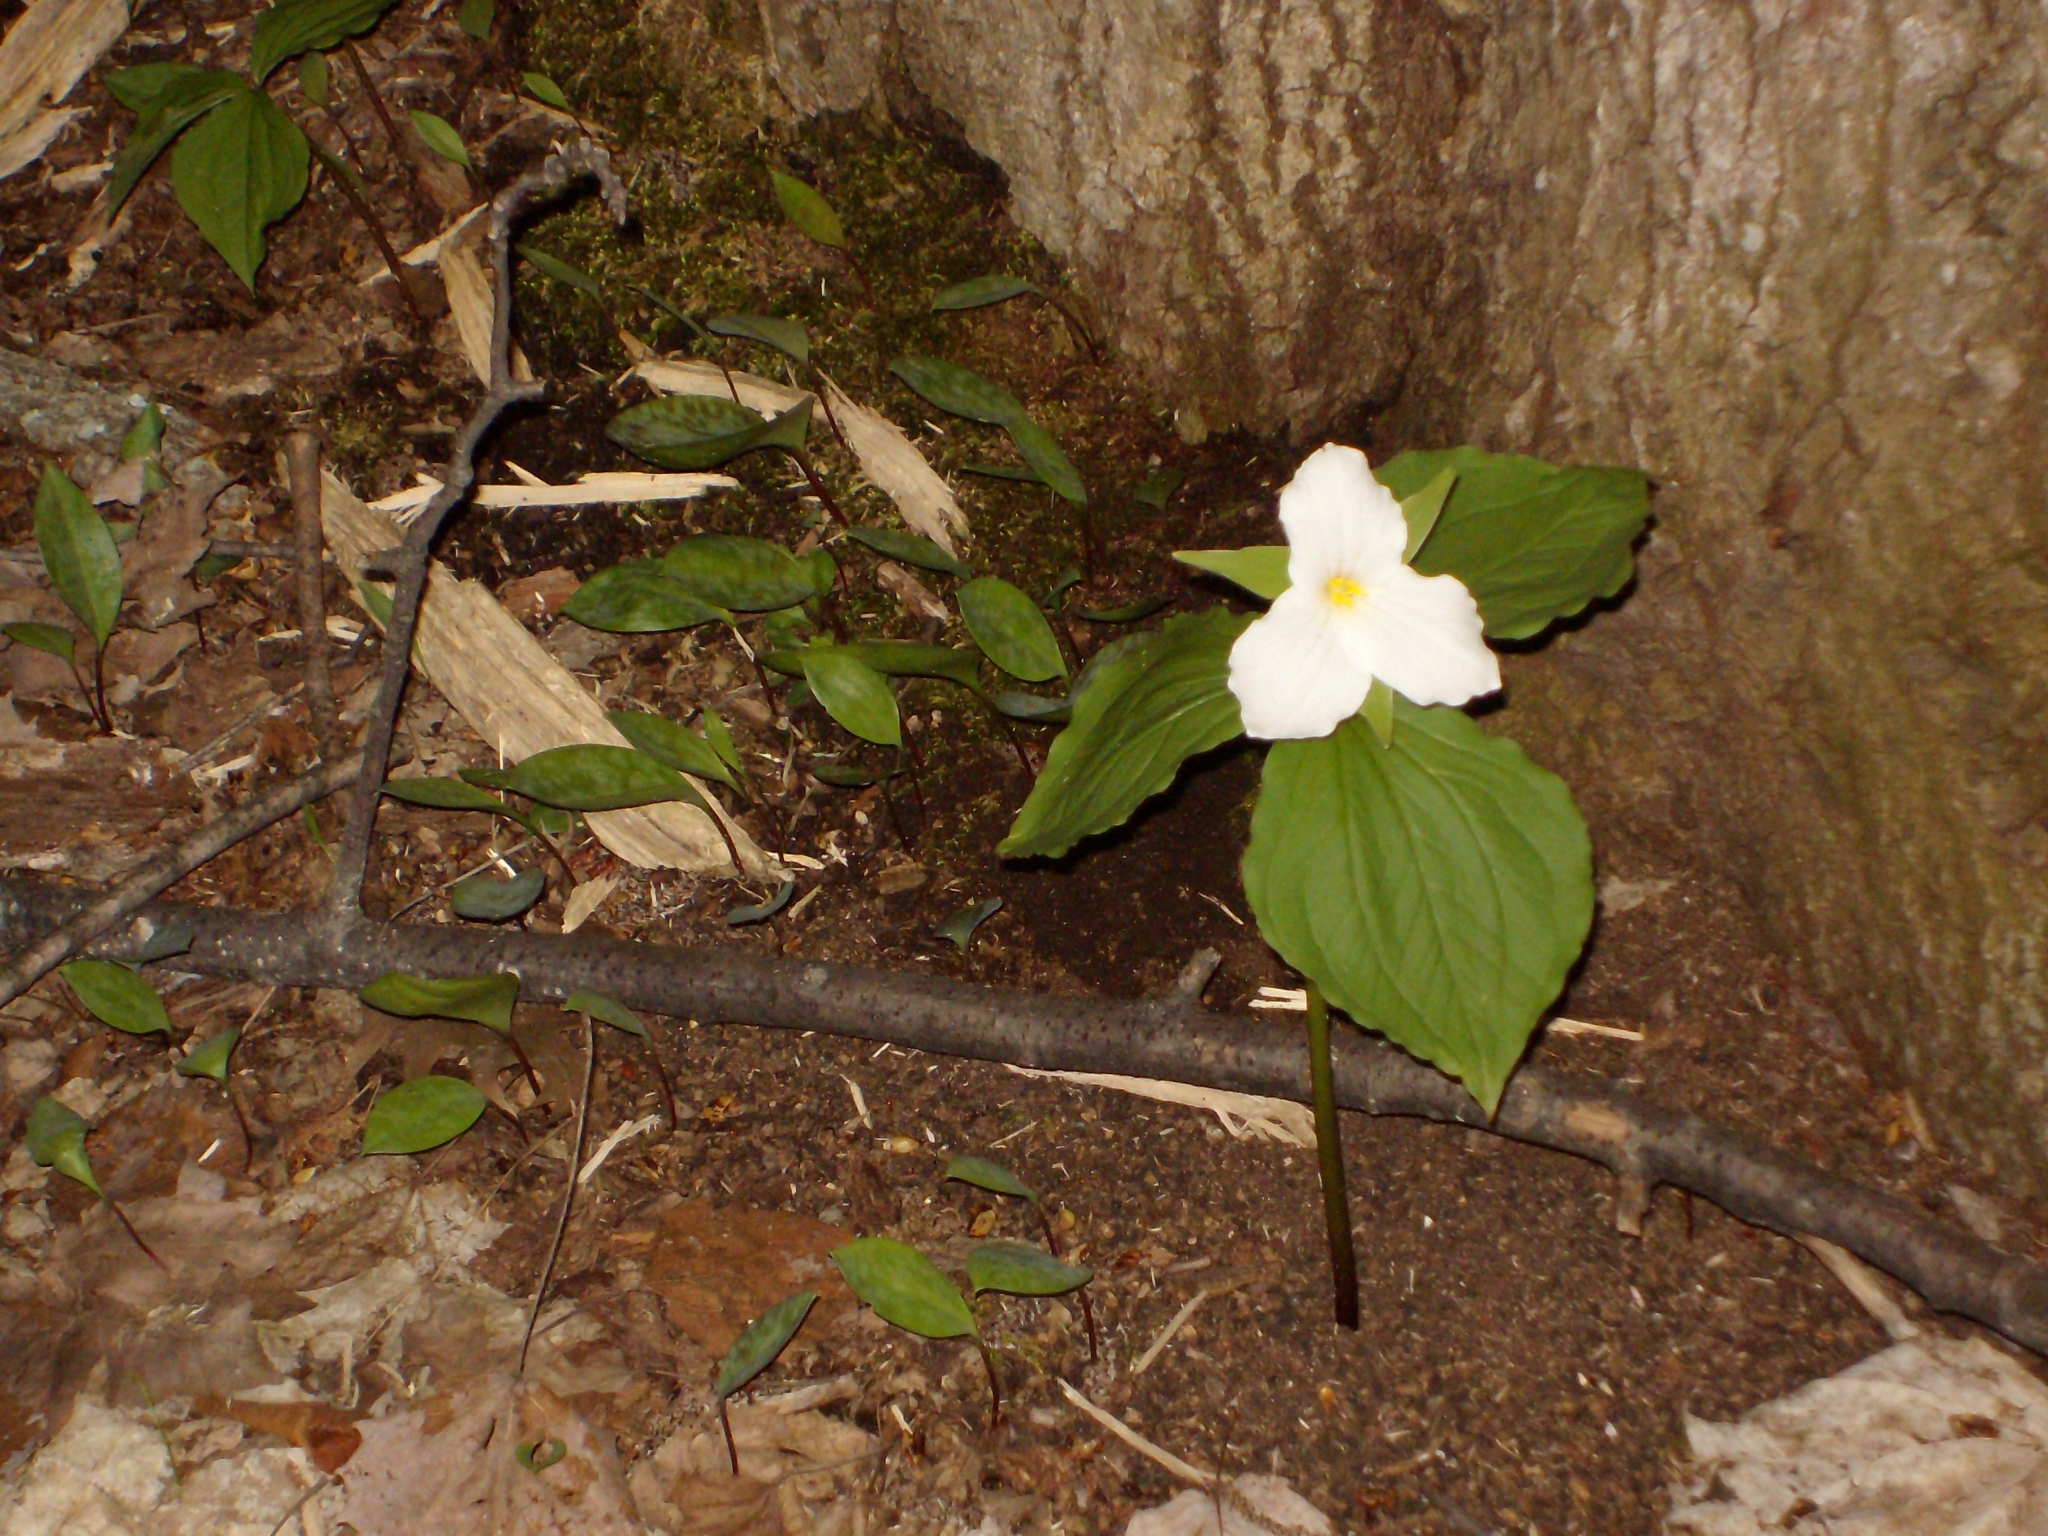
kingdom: Plantae
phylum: Tracheophyta
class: Liliopsida
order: Liliales
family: Melanthiaceae
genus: Trillium
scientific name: Trillium grandiflorum
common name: Great white trillium
